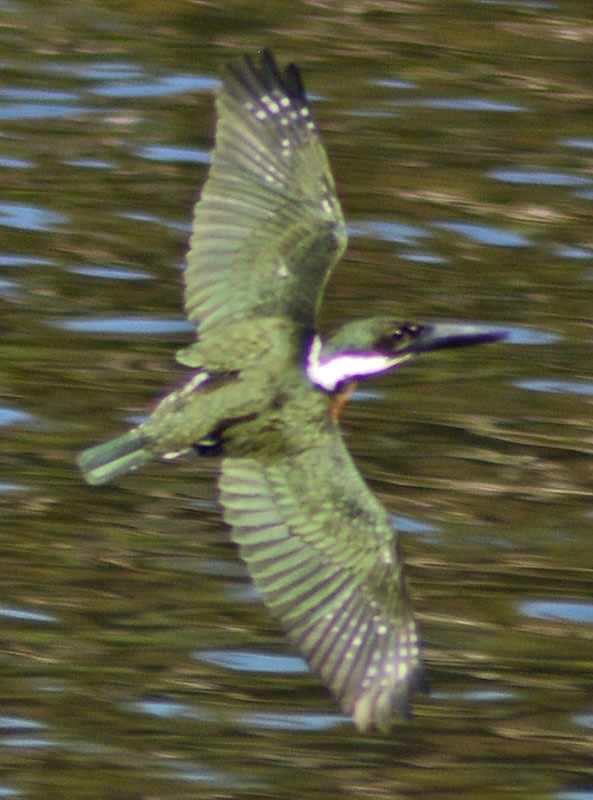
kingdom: Animalia
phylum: Chordata
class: Aves
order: Coraciiformes
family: Alcedinidae
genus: Chloroceryle
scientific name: Chloroceryle amazona
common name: Amazon kingfisher
